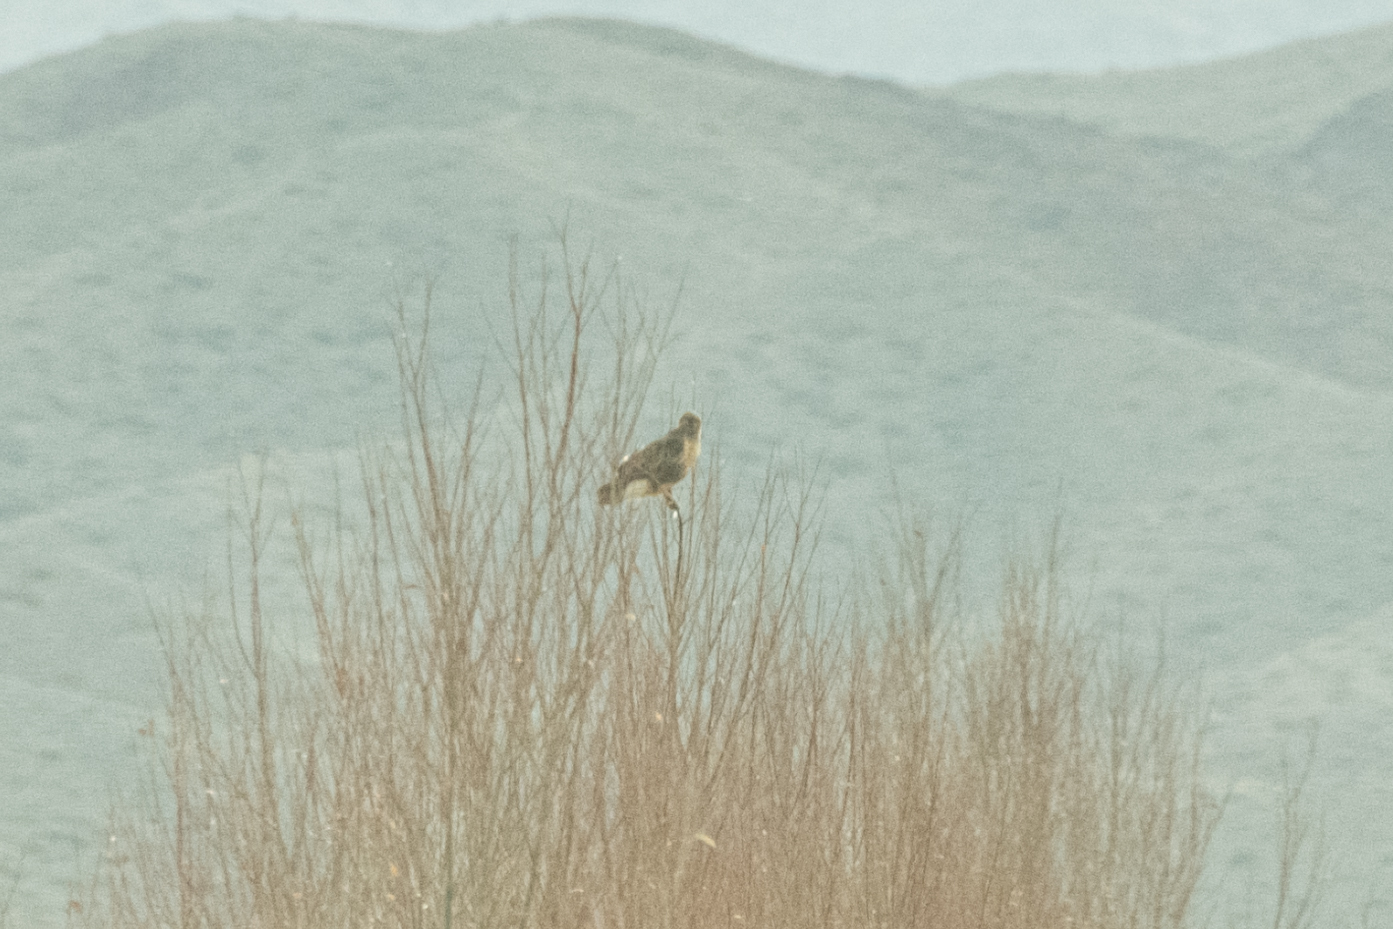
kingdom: Animalia
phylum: Chordata
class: Aves
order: Accipitriformes
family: Accipitridae
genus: Buteo
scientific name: Buteo rufinus
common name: Long-legged buzzard
